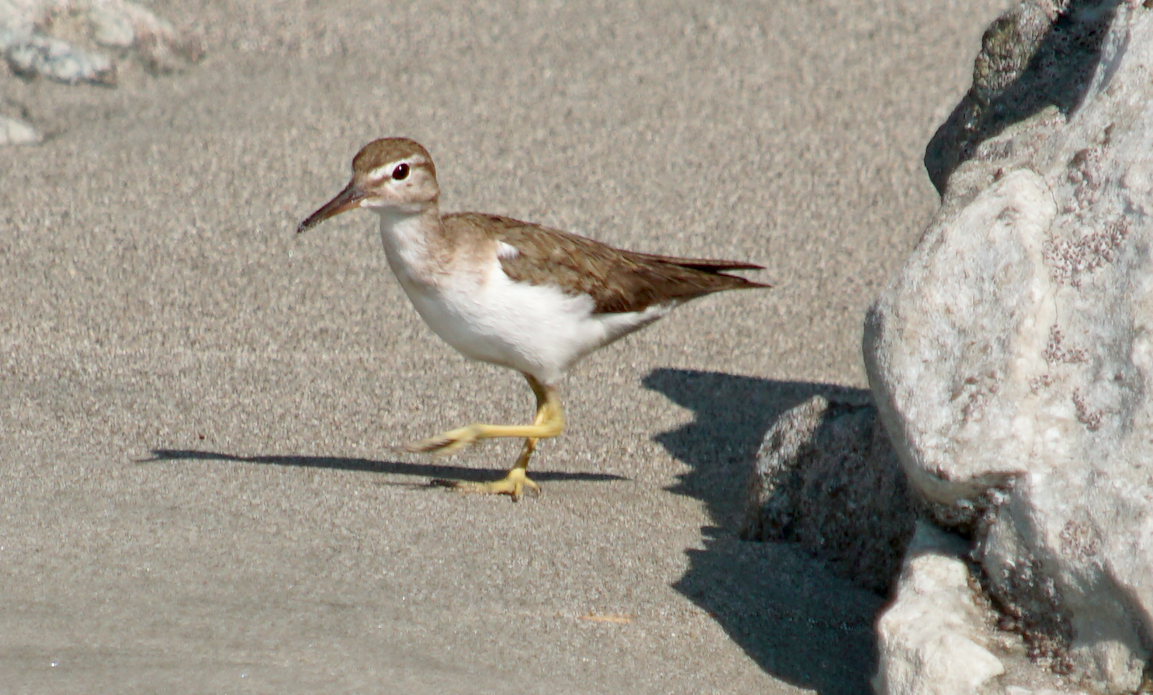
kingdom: Animalia
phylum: Chordata
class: Aves
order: Charadriiformes
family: Scolopacidae
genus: Actitis
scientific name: Actitis macularius
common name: Spotted sandpiper
